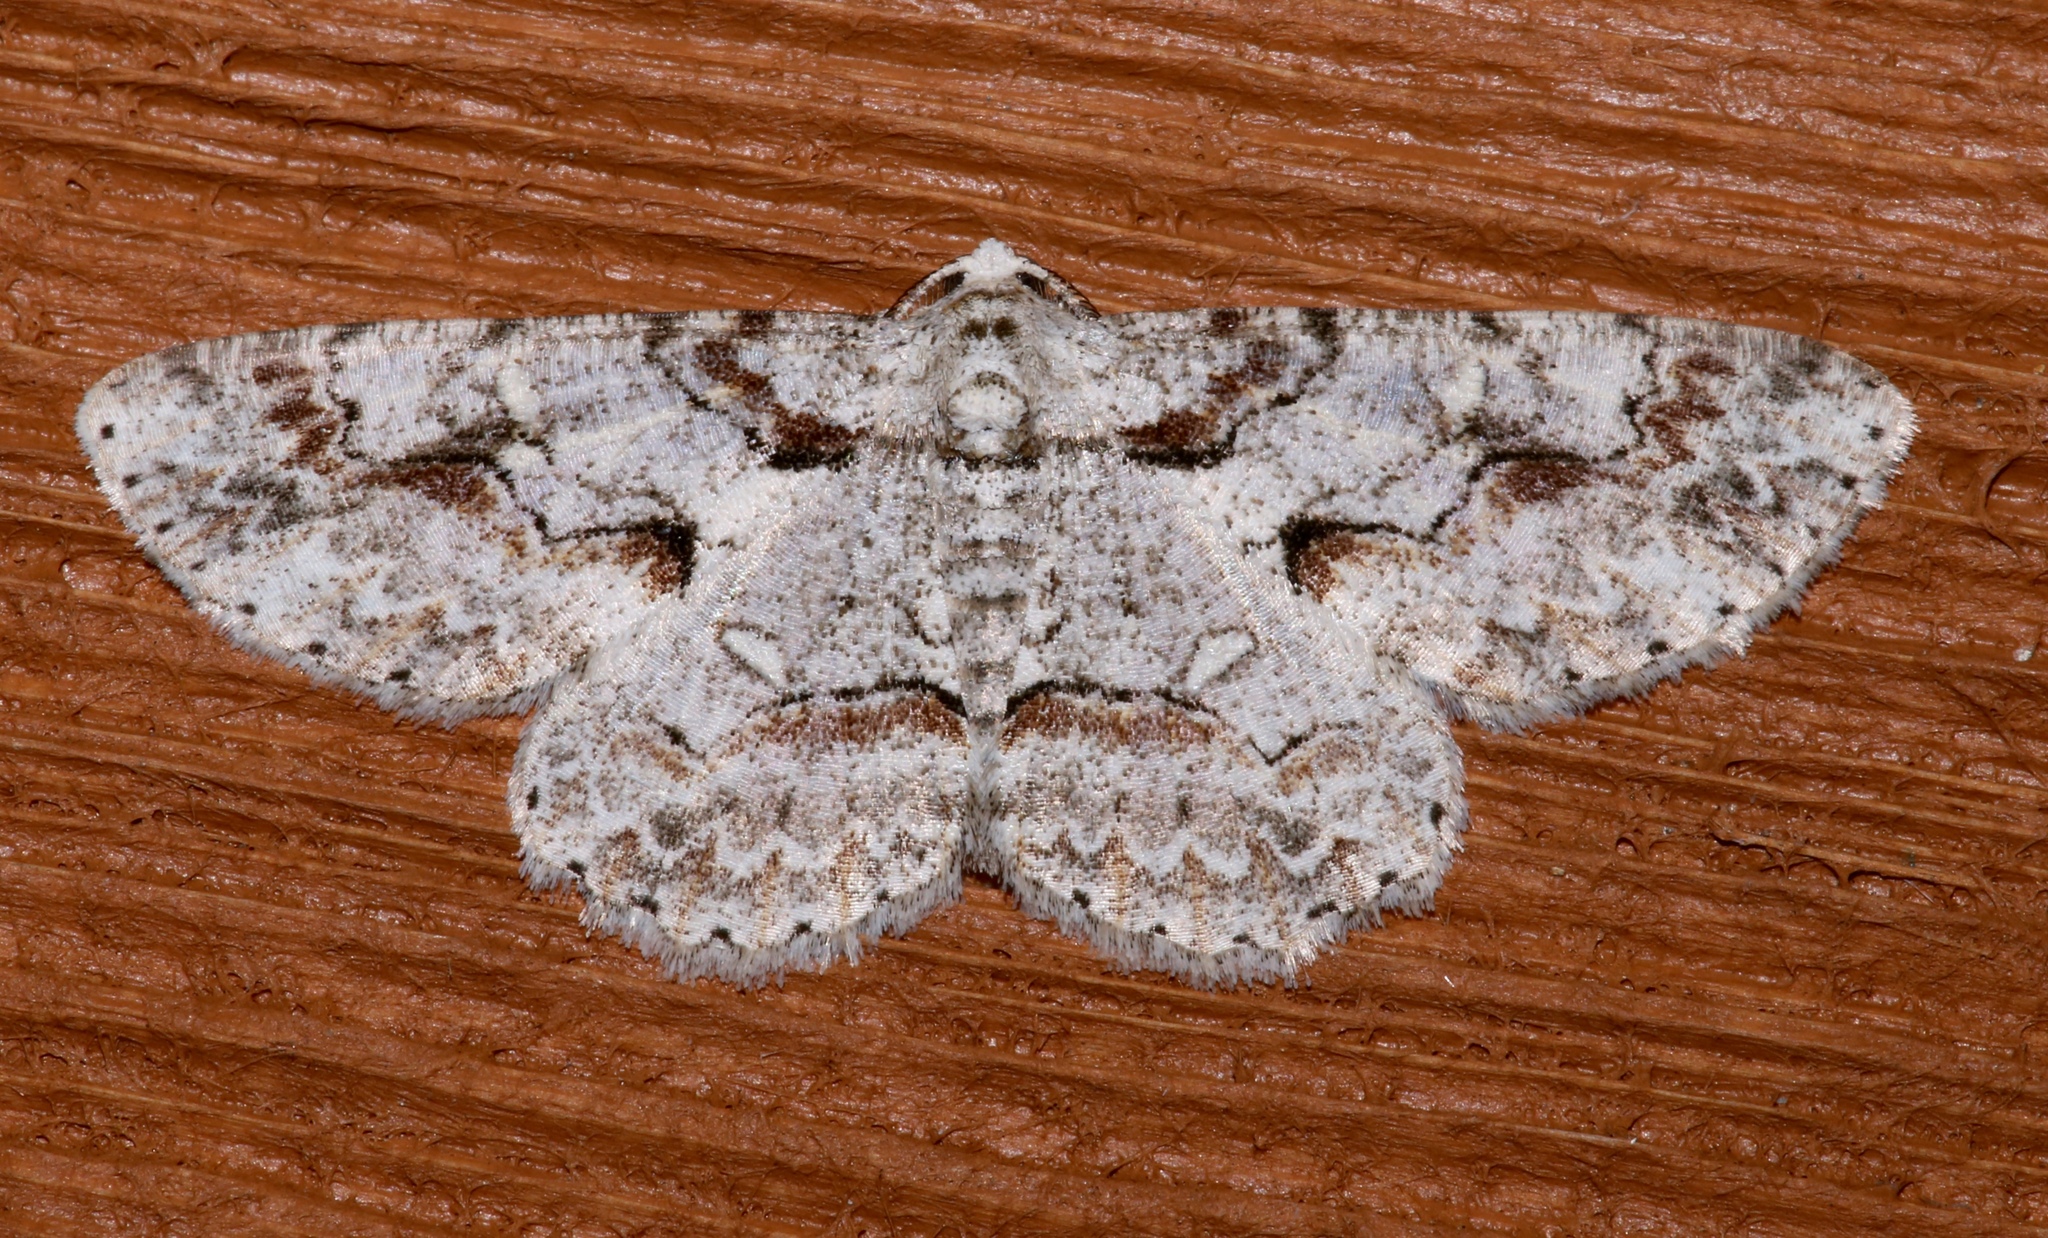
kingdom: Animalia
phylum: Arthropoda
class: Insecta
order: Lepidoptera
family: Geometridae
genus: Iridopsis
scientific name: Iridopsis defectaria
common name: Brown-shaded gray
